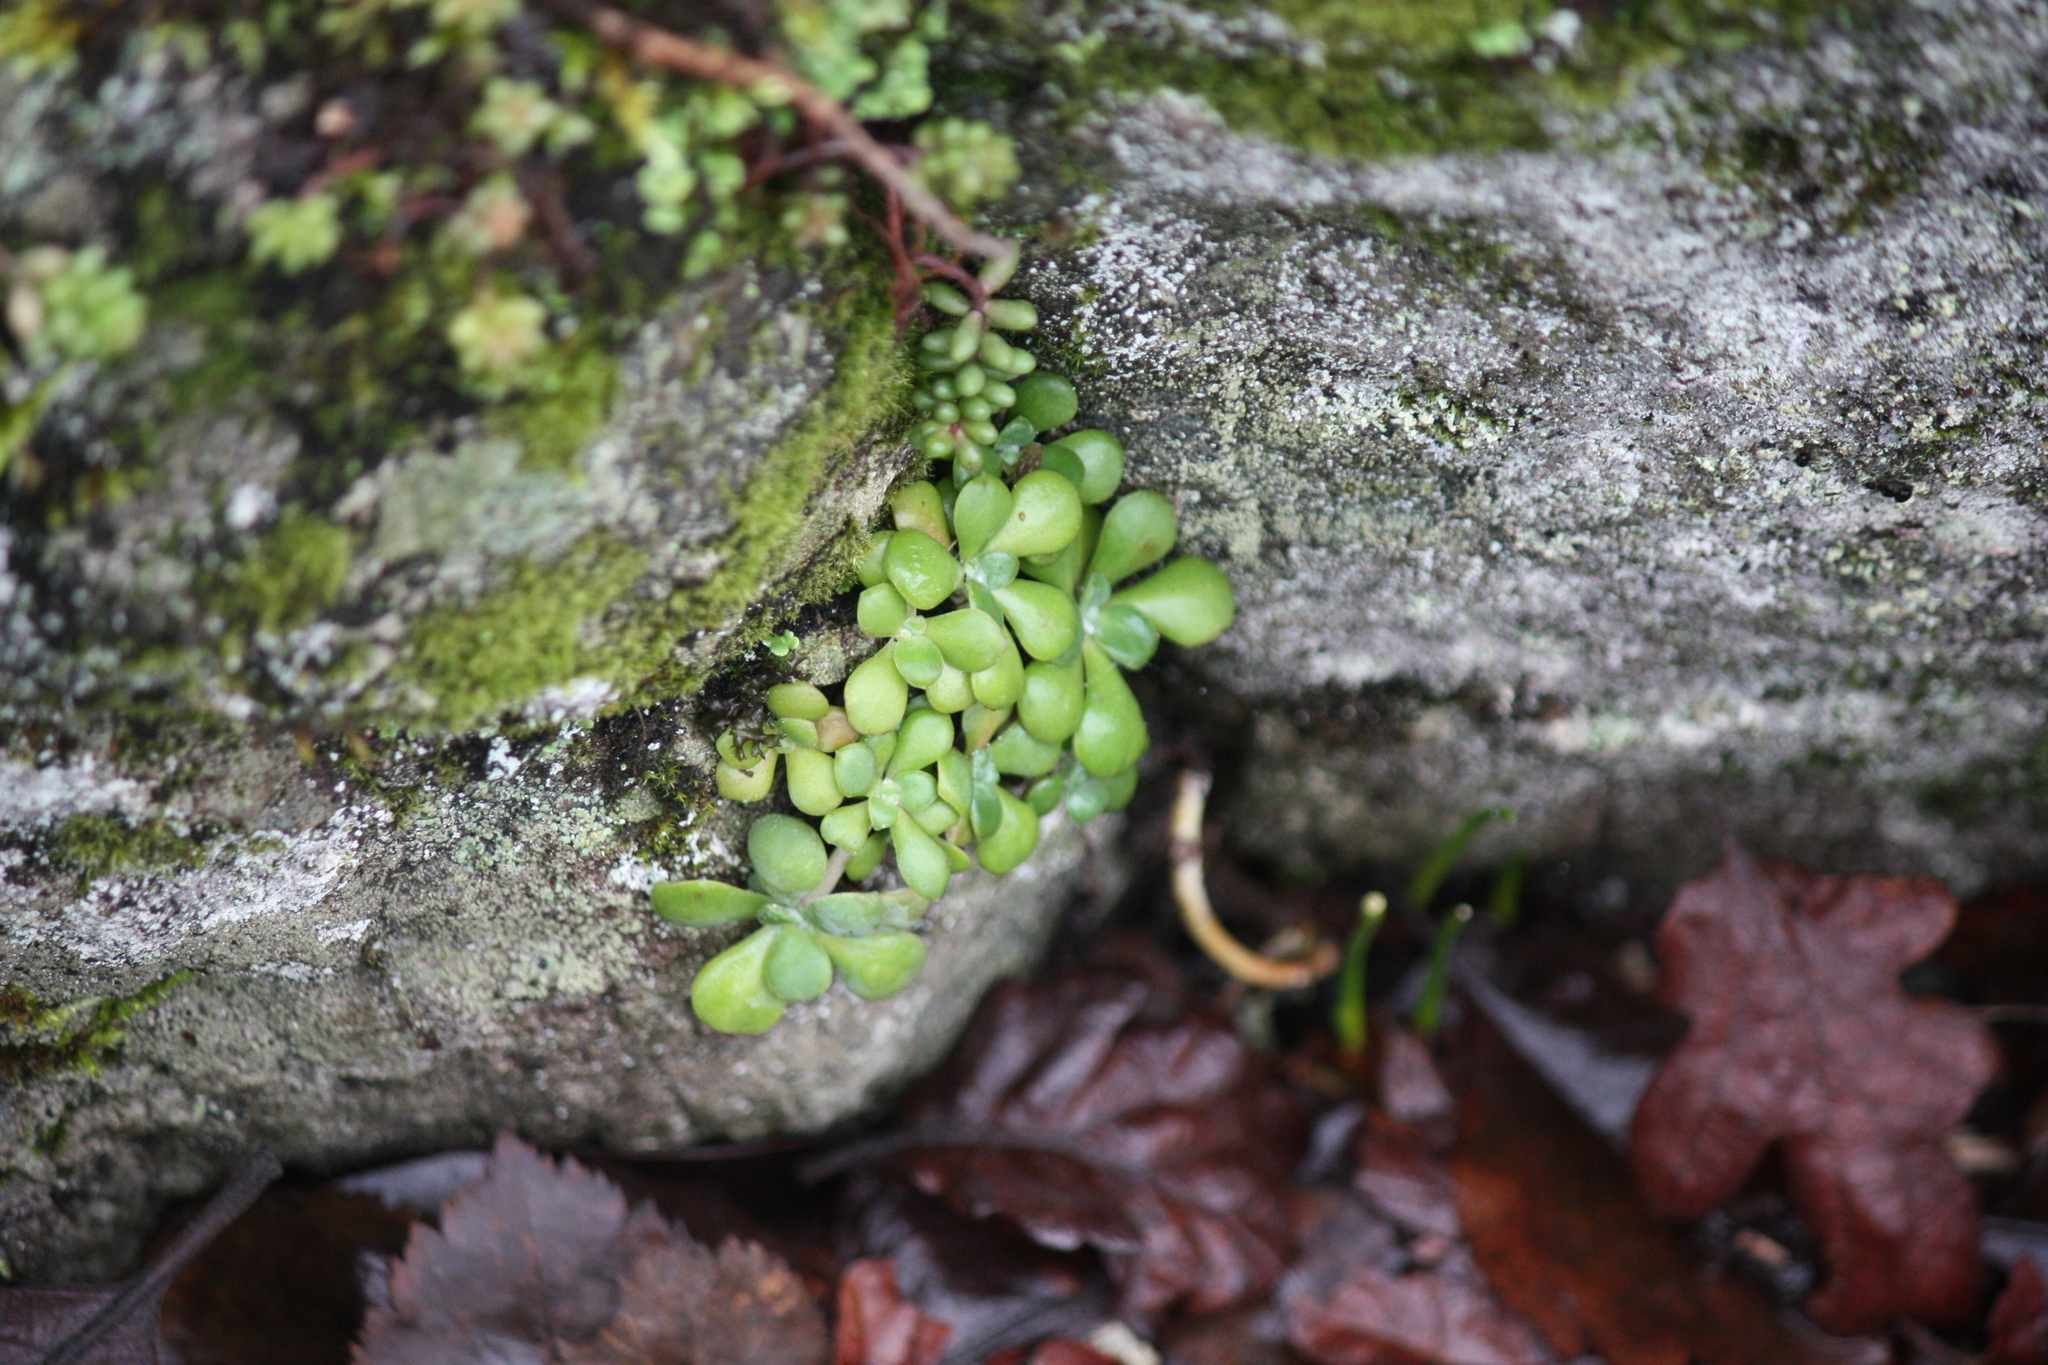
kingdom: Plantae
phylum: Tracheophyta
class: Magnoliopsida
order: Saxifragales
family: Crassulaceae
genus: Sedum
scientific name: Sedum spathulifolium
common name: Colorado stonecrop
